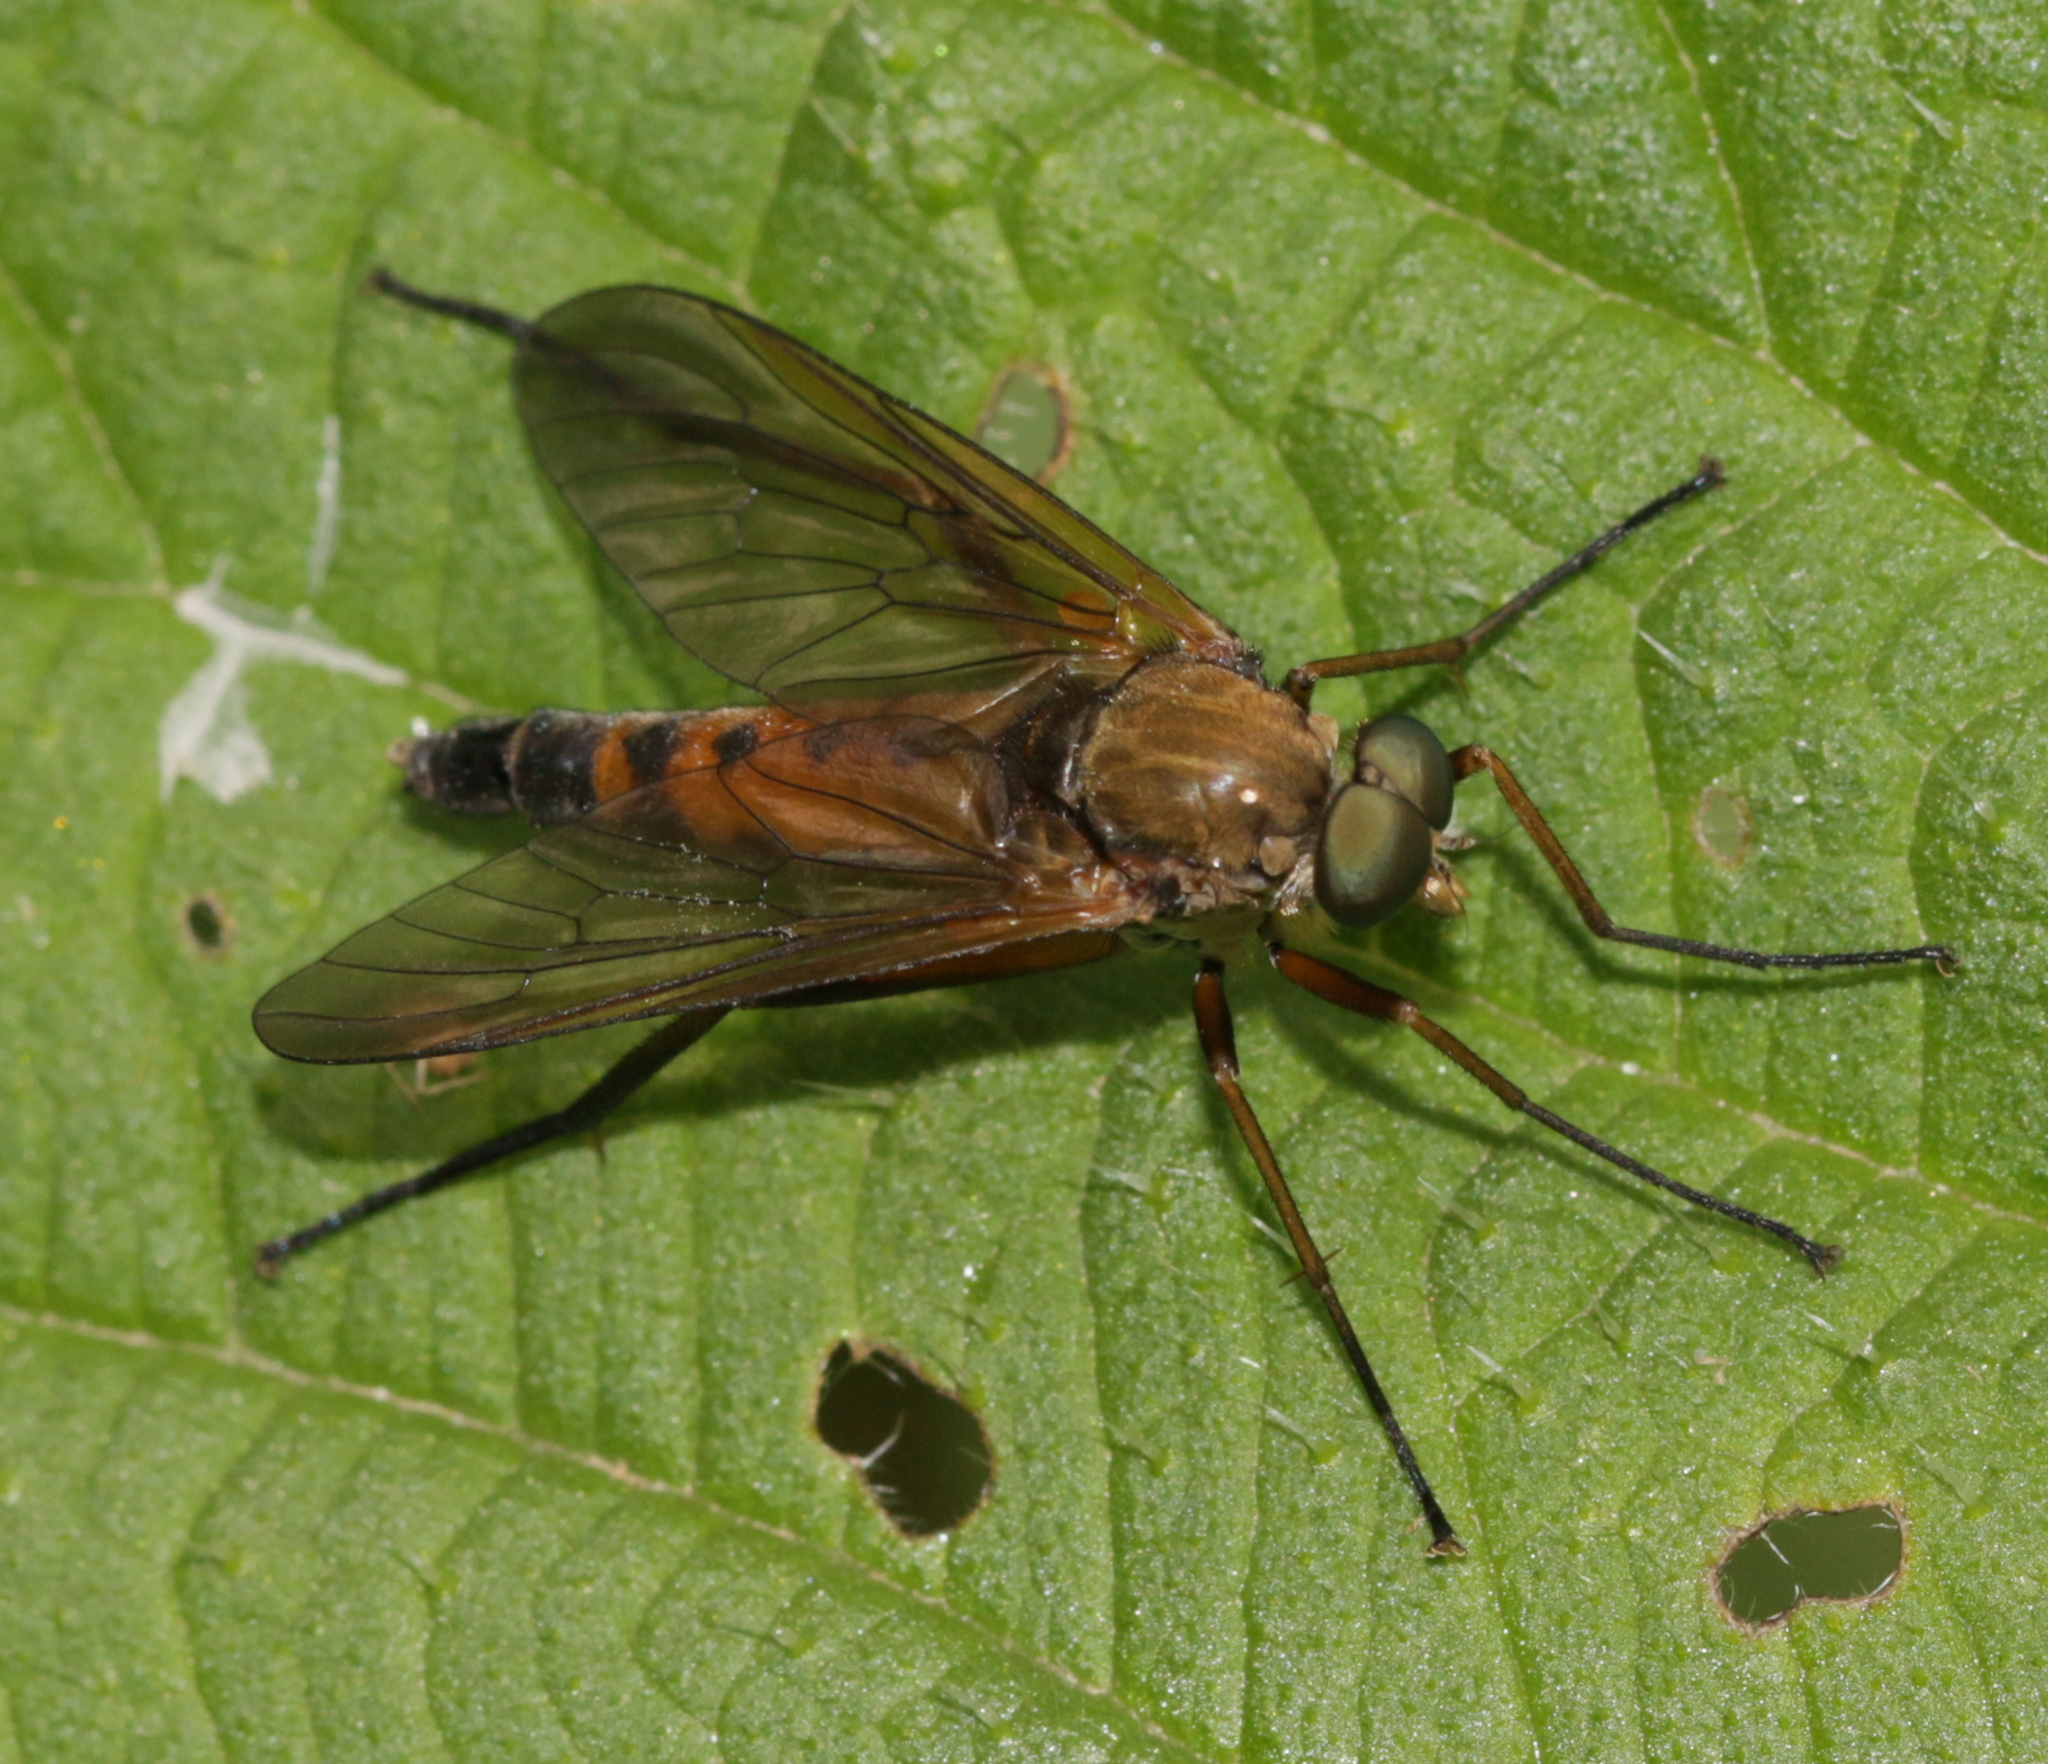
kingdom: Animalia
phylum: Arthropoda
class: Insecta
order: Diptera
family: Rhagionidae
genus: Rhagio
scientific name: Rhagio tringaria
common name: Marsh snipefly
